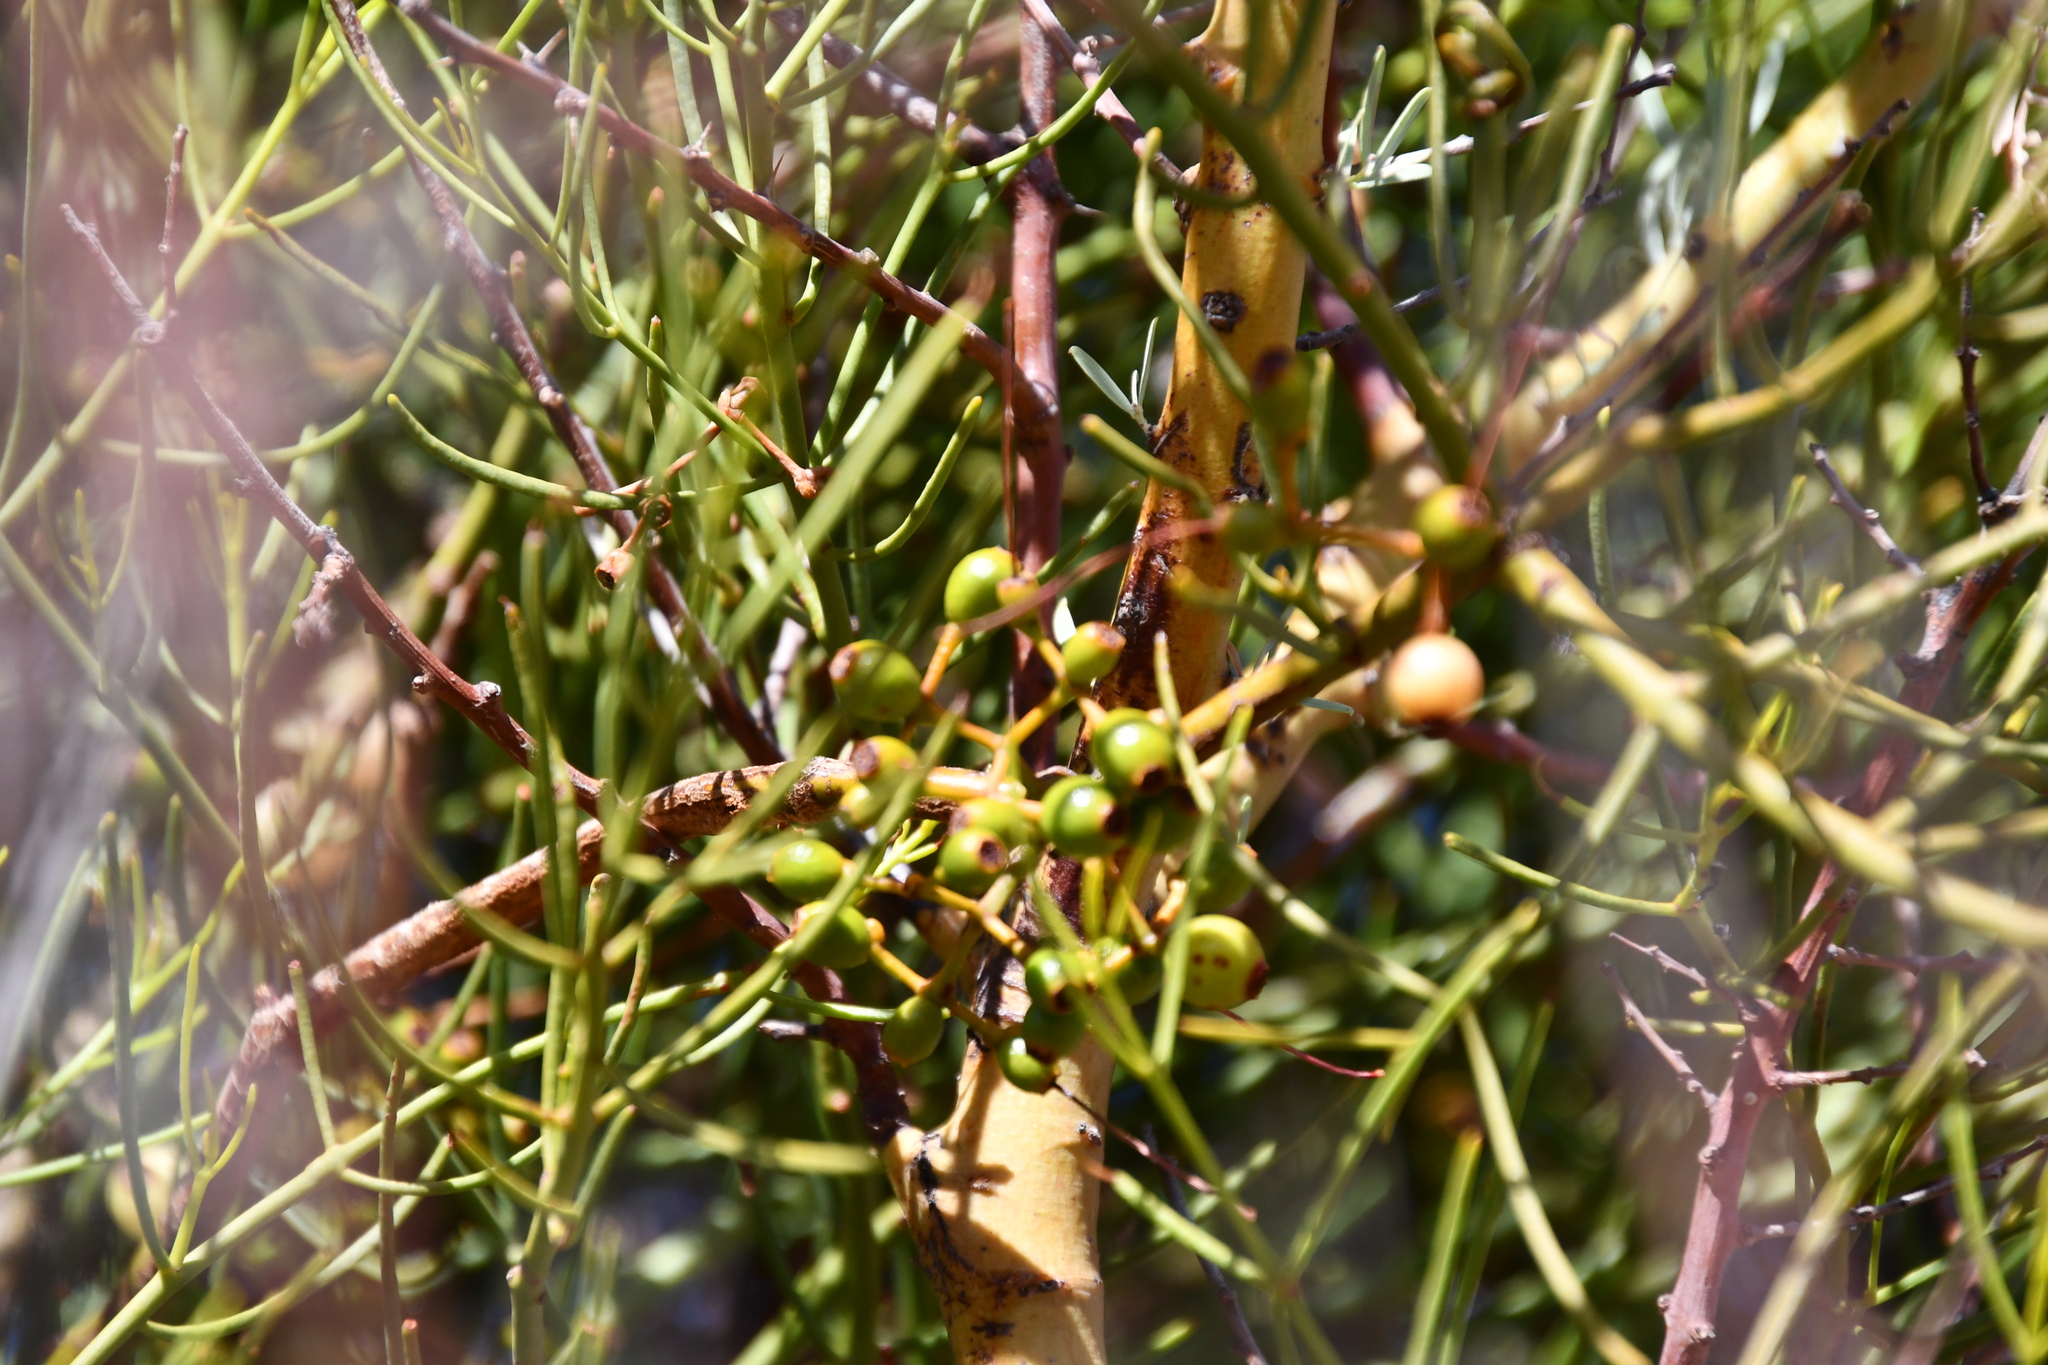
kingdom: Plantae
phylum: Tracheophyta
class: Magnoliopsida
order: Santalales
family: Loranthaceae
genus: Amyema
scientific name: Amyema preissii
